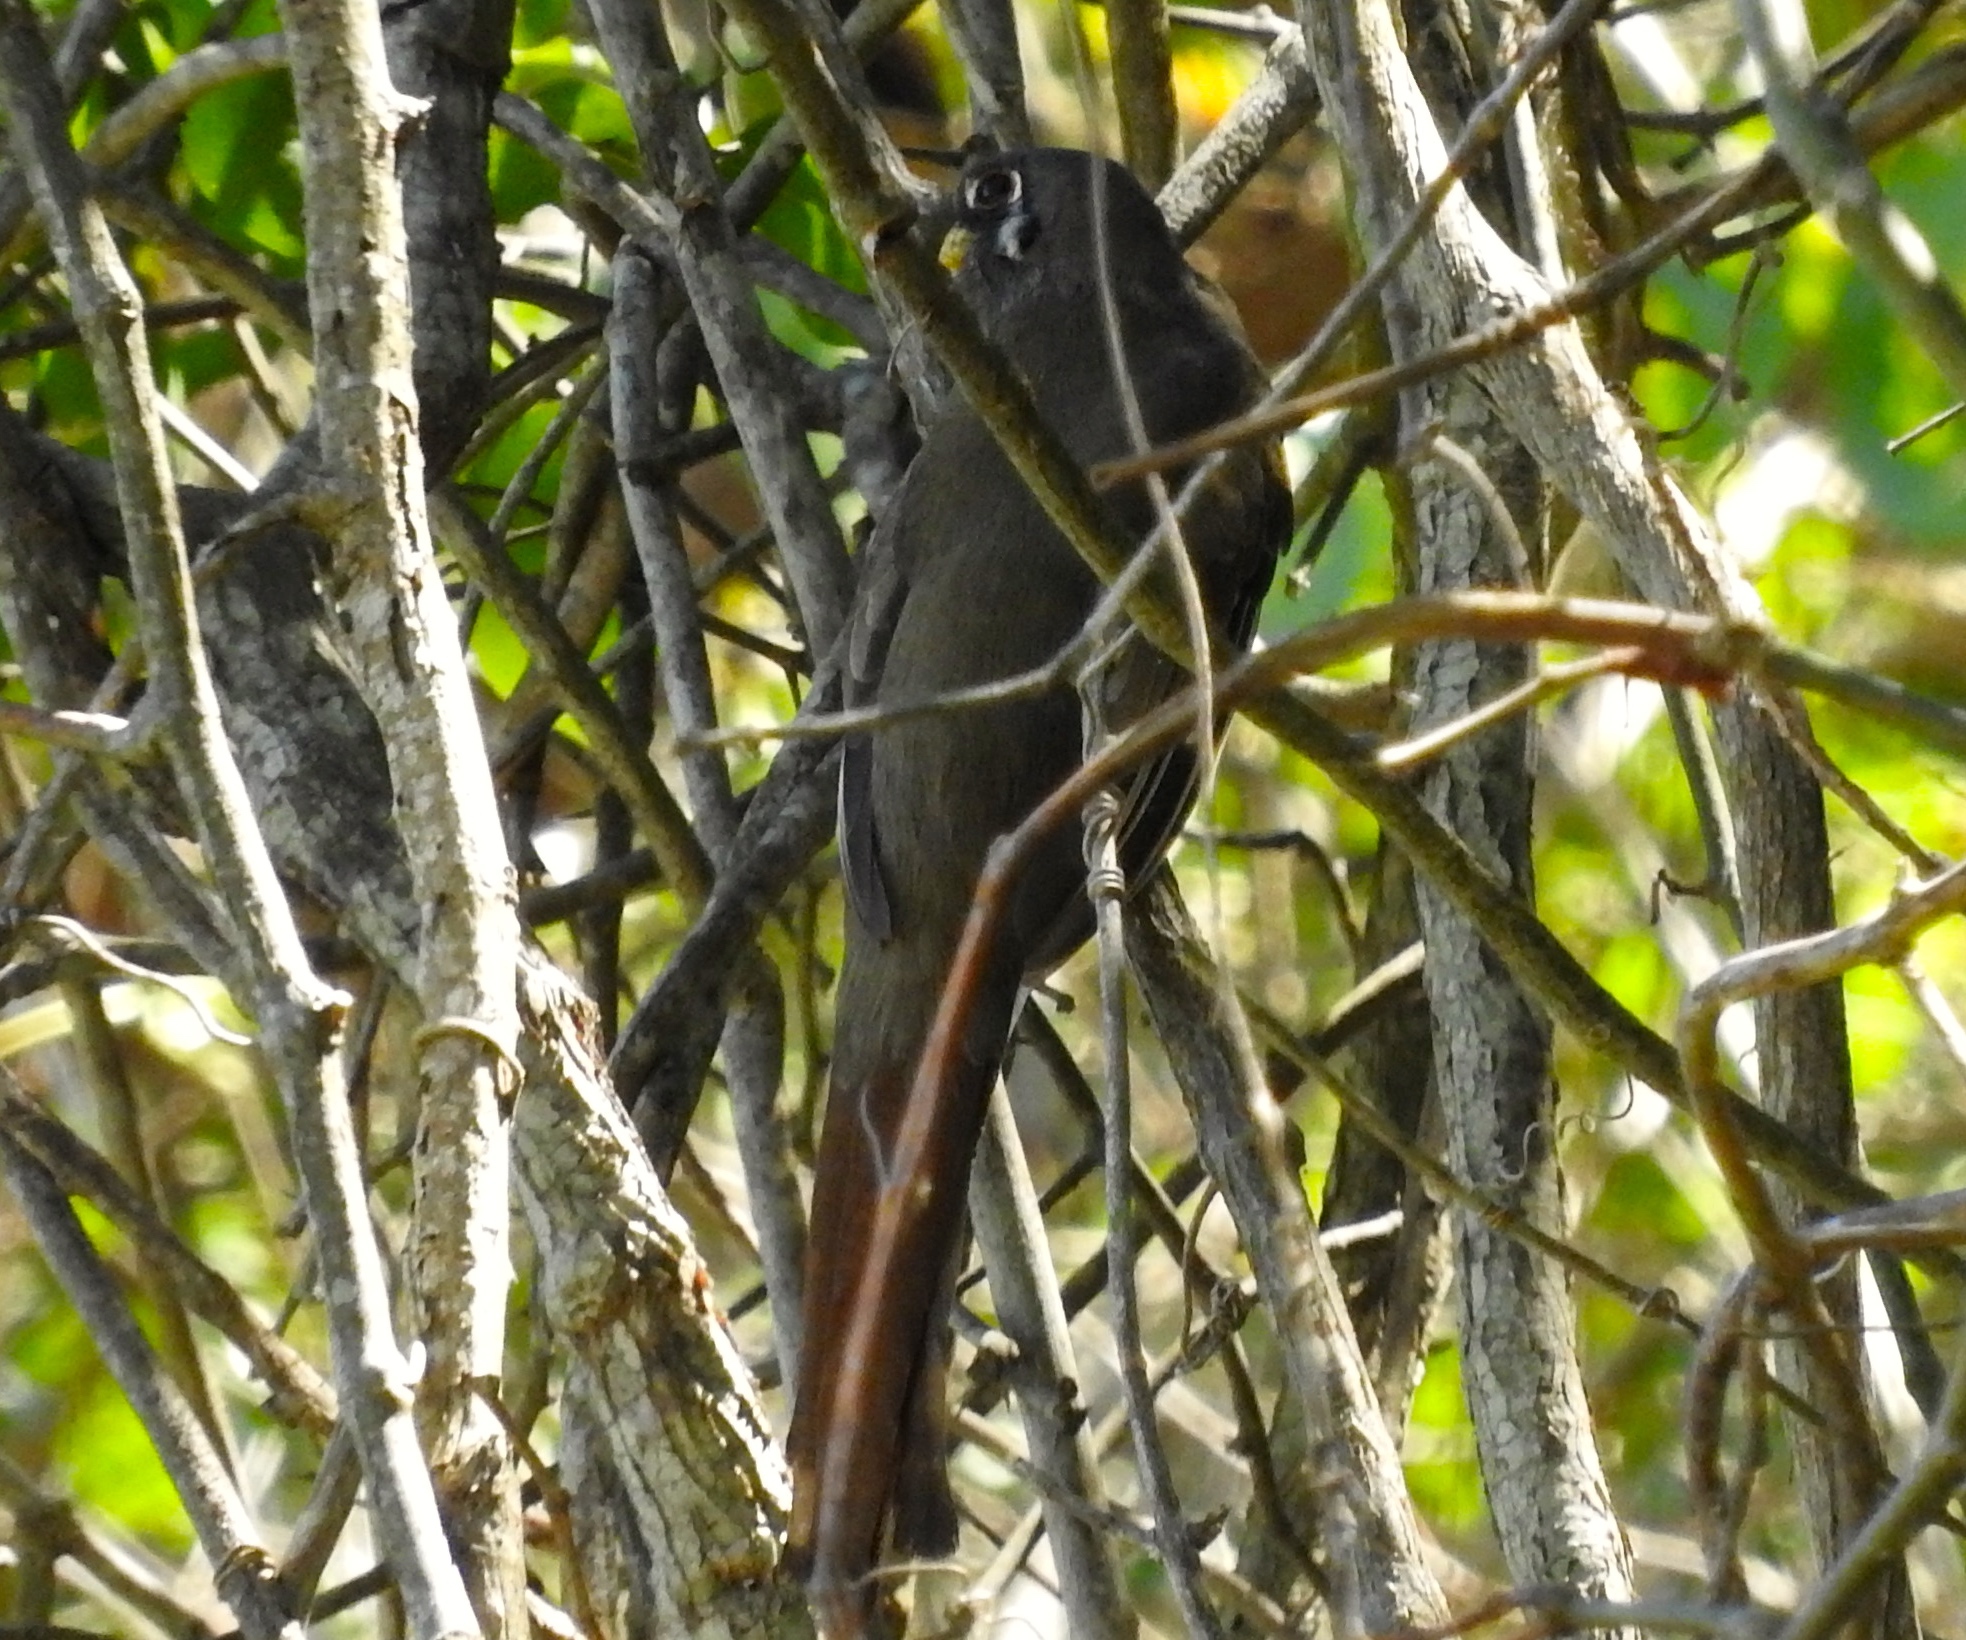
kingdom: Animalia
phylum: Chordata
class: Aves
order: Trogoniformes
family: Trogonidae
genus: Trogon
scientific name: Trogon elegans
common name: Elegant trogon
